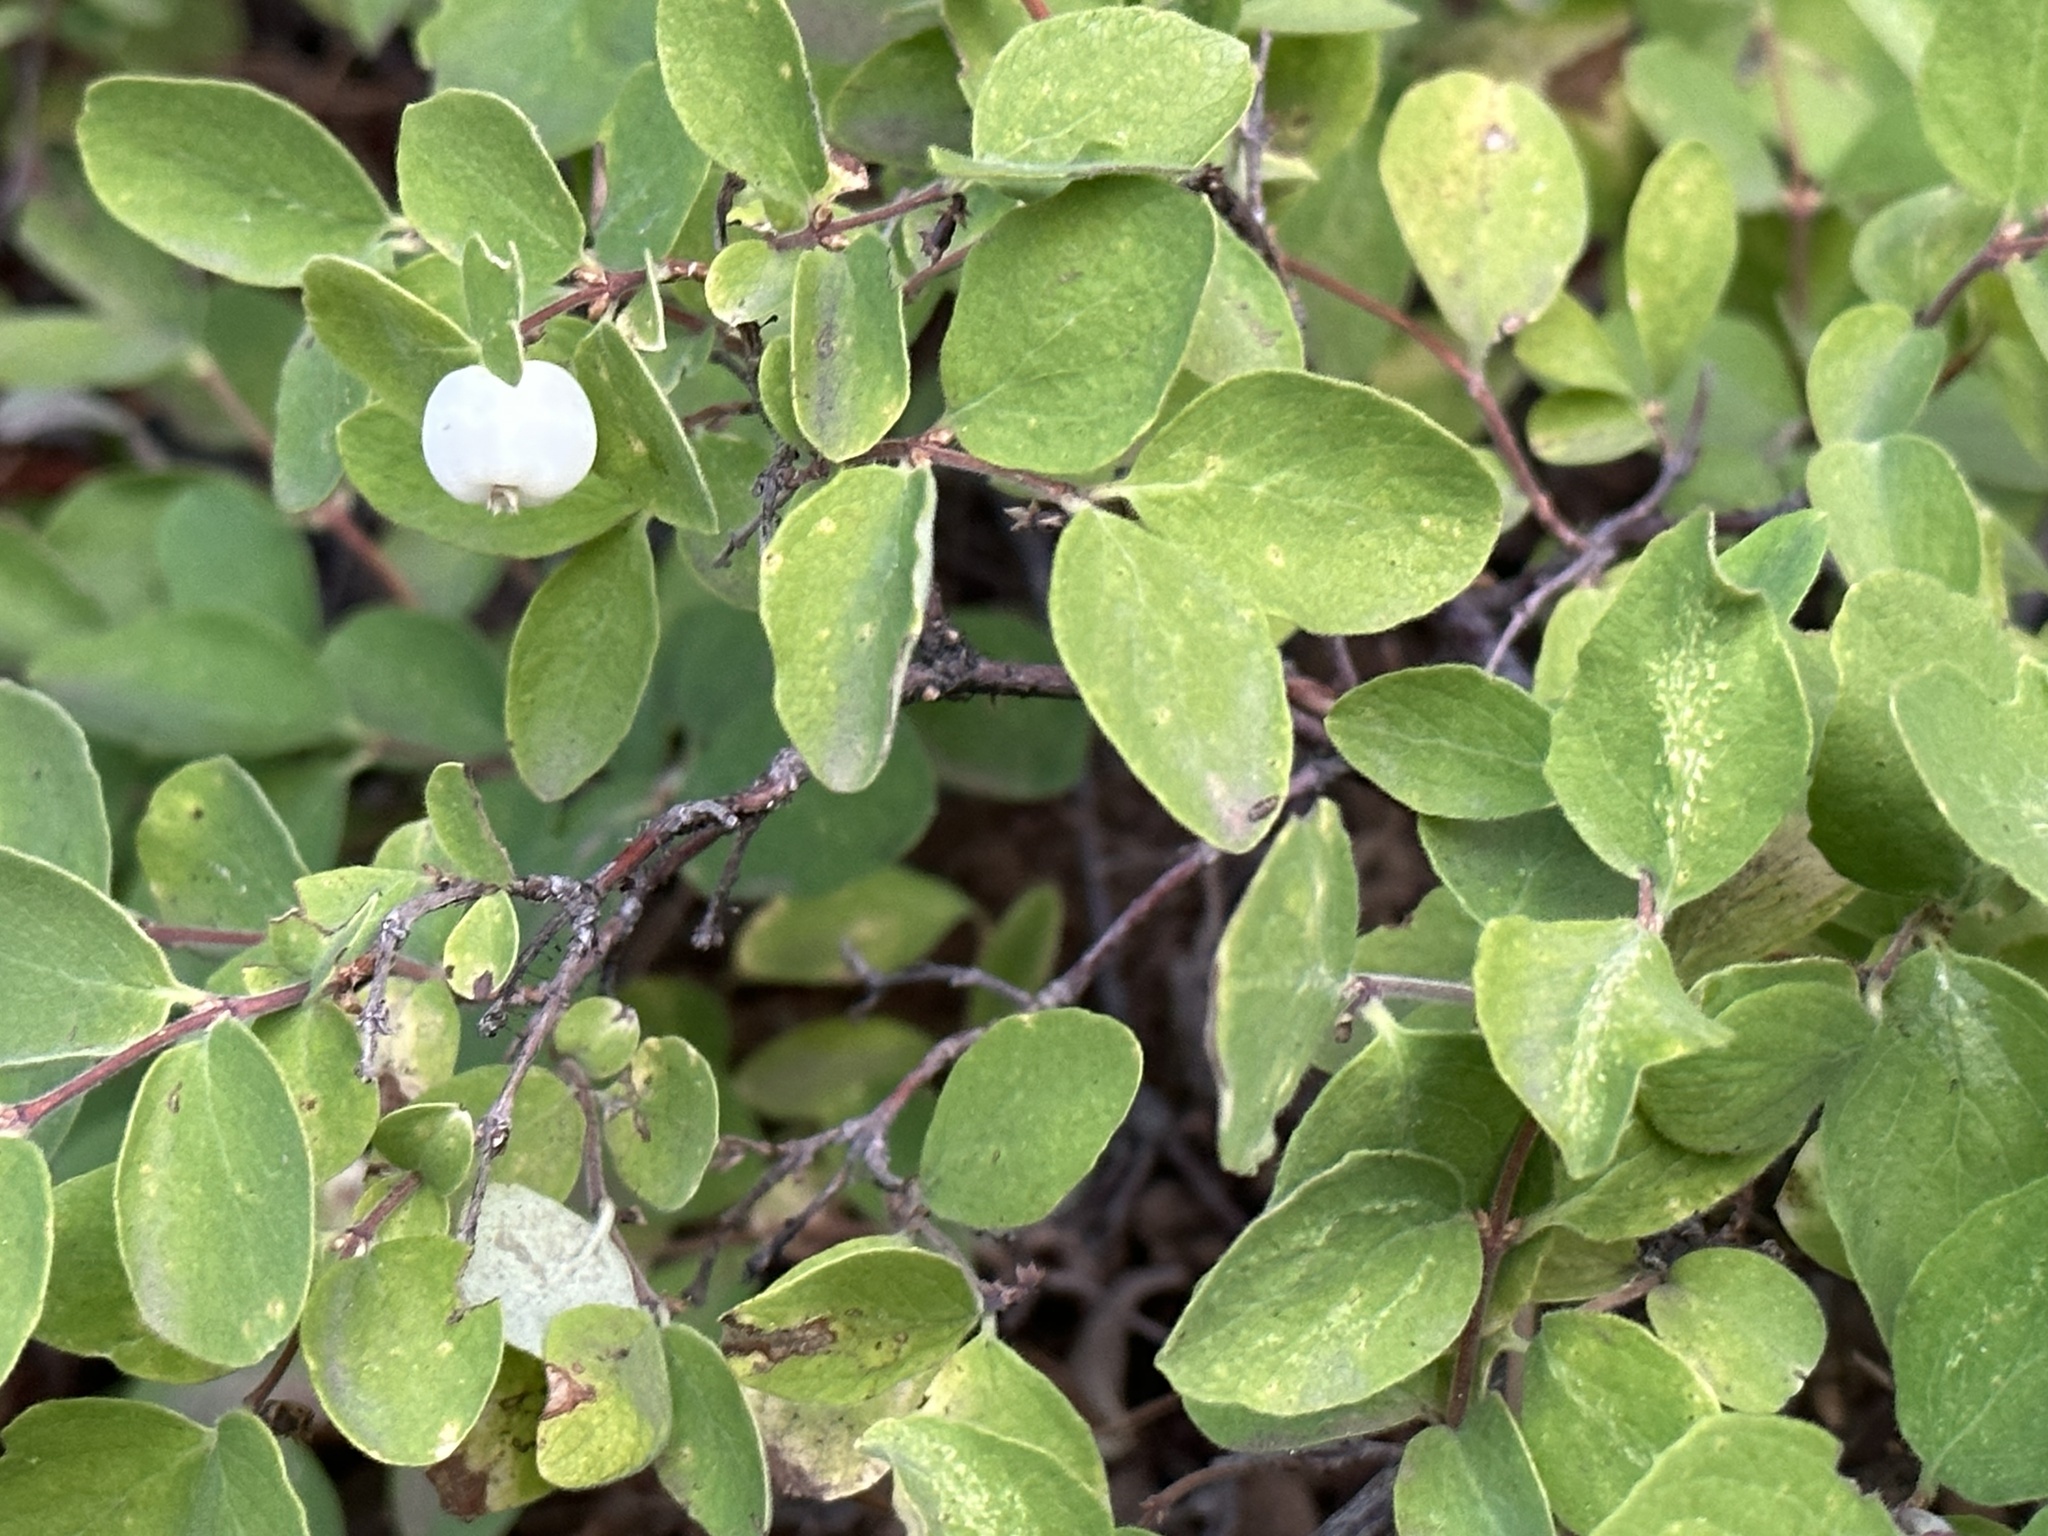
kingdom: Plantae
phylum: Tracheophyta
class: Magnoliopsida
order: Dipsacales
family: Caprifoliaceae
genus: Symphoricarpos
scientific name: Symphoricarpos albus
